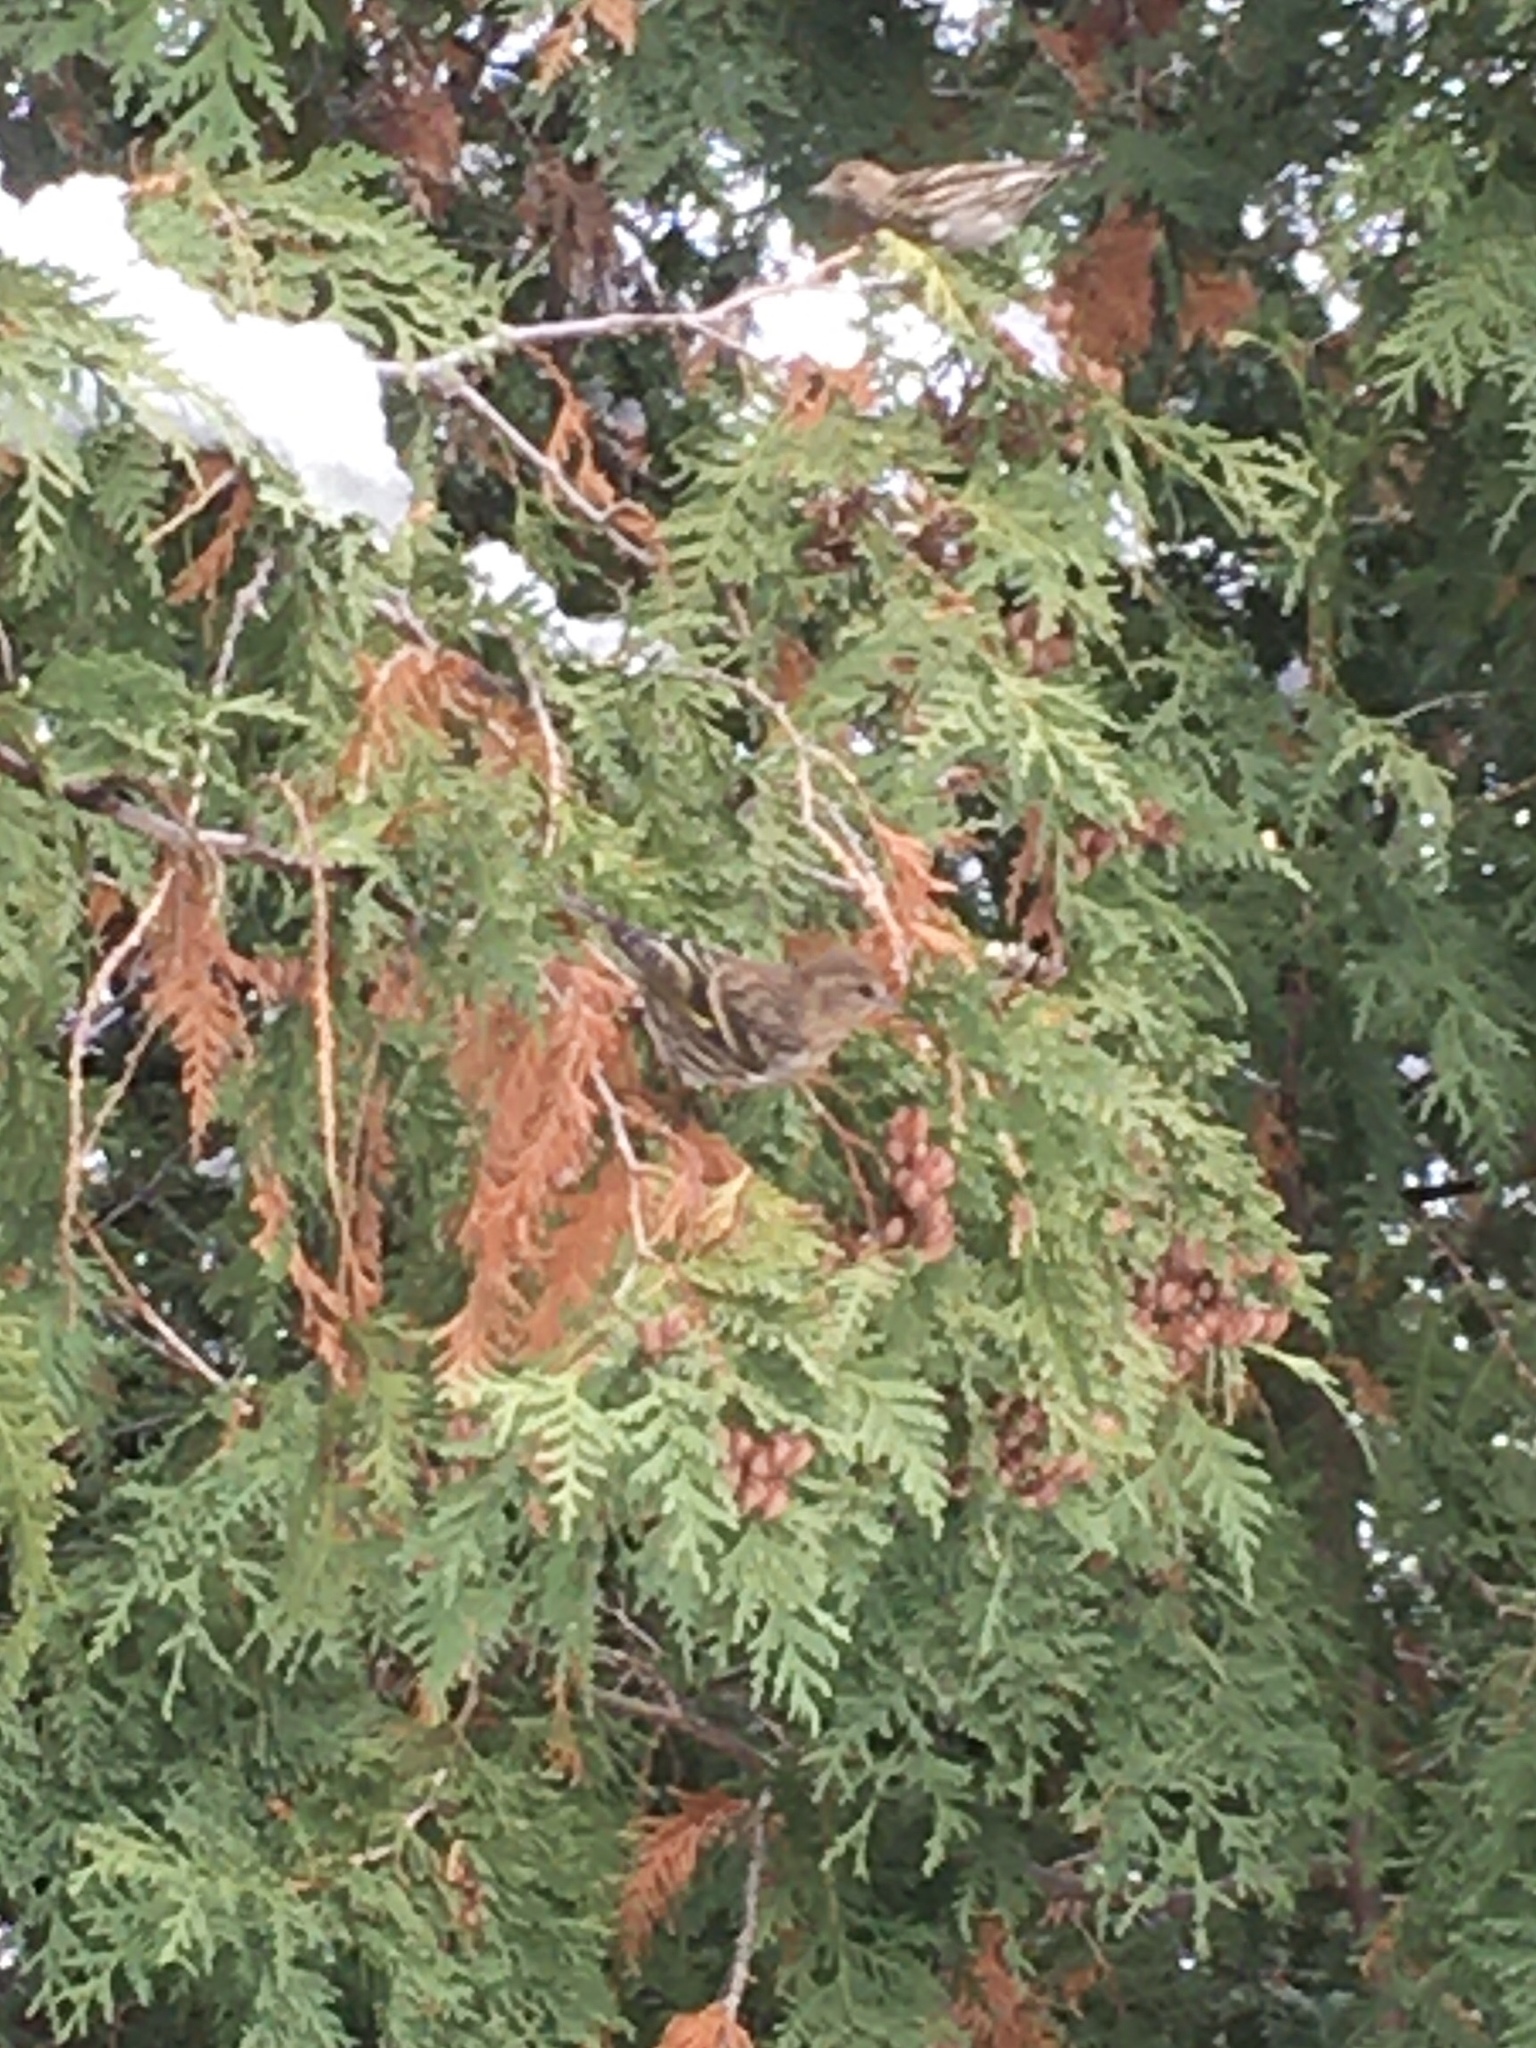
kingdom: Animalia
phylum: Chordata
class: Aves
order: Passeriformes
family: Fringillidae
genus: Spinus
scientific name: Spinus pinus
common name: Pine siskin
